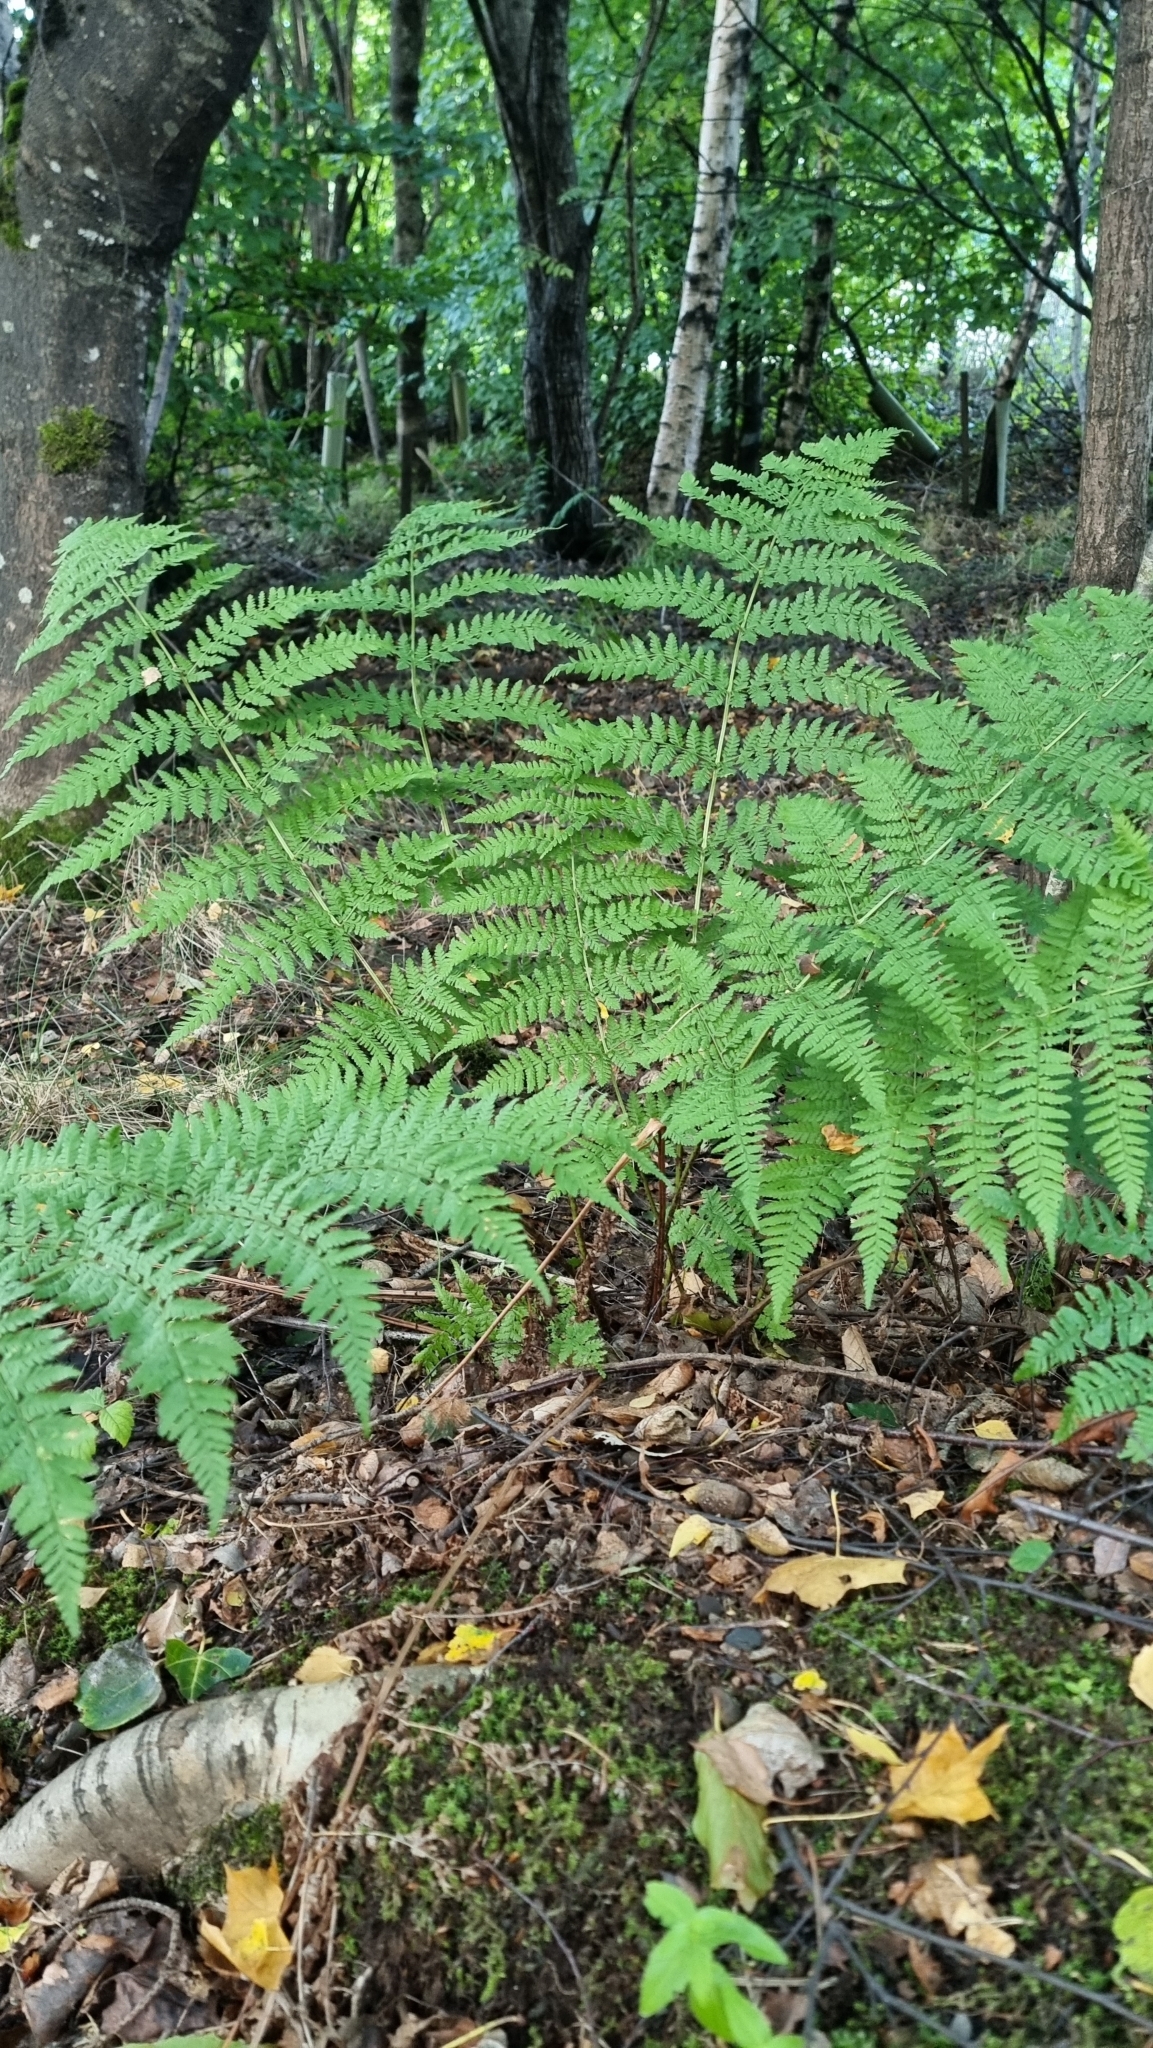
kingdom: Plantae
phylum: Tracheophyta
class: Polypodiopsida
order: Polypodiales
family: Athyriaceae
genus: Athyrium
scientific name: Athyrium filix-femina
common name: Lady fern
